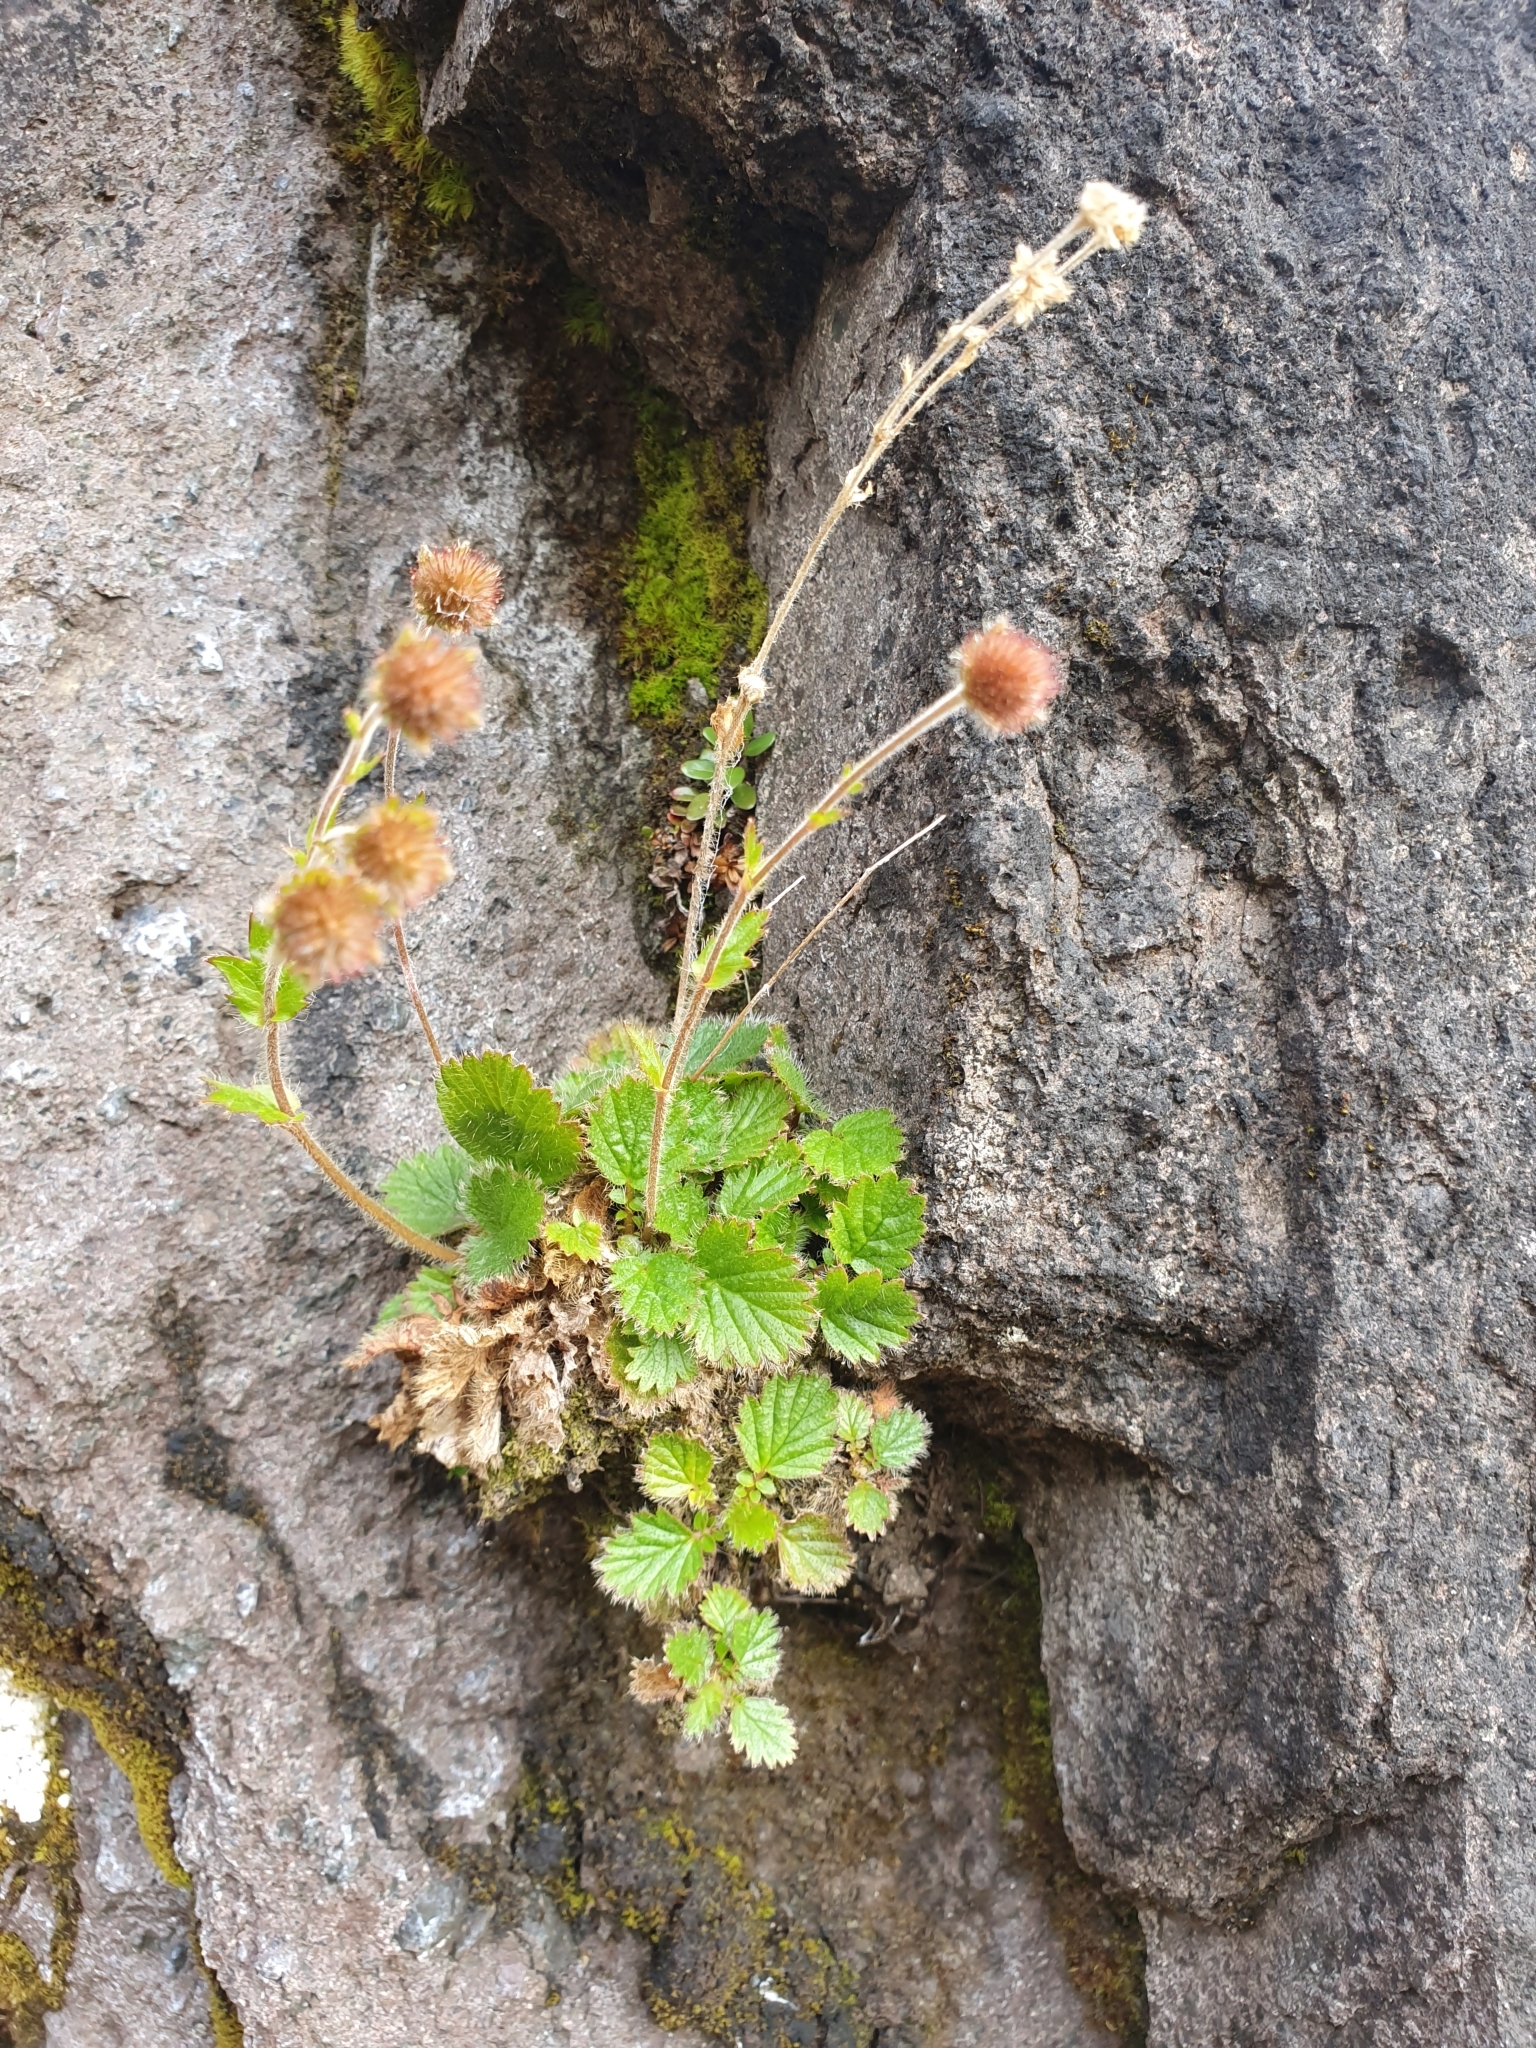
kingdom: Plantae
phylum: Tracheophyta
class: Magnoliopsida
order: Rosales
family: Rosaceae
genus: Geum
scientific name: Geum cockaynei
